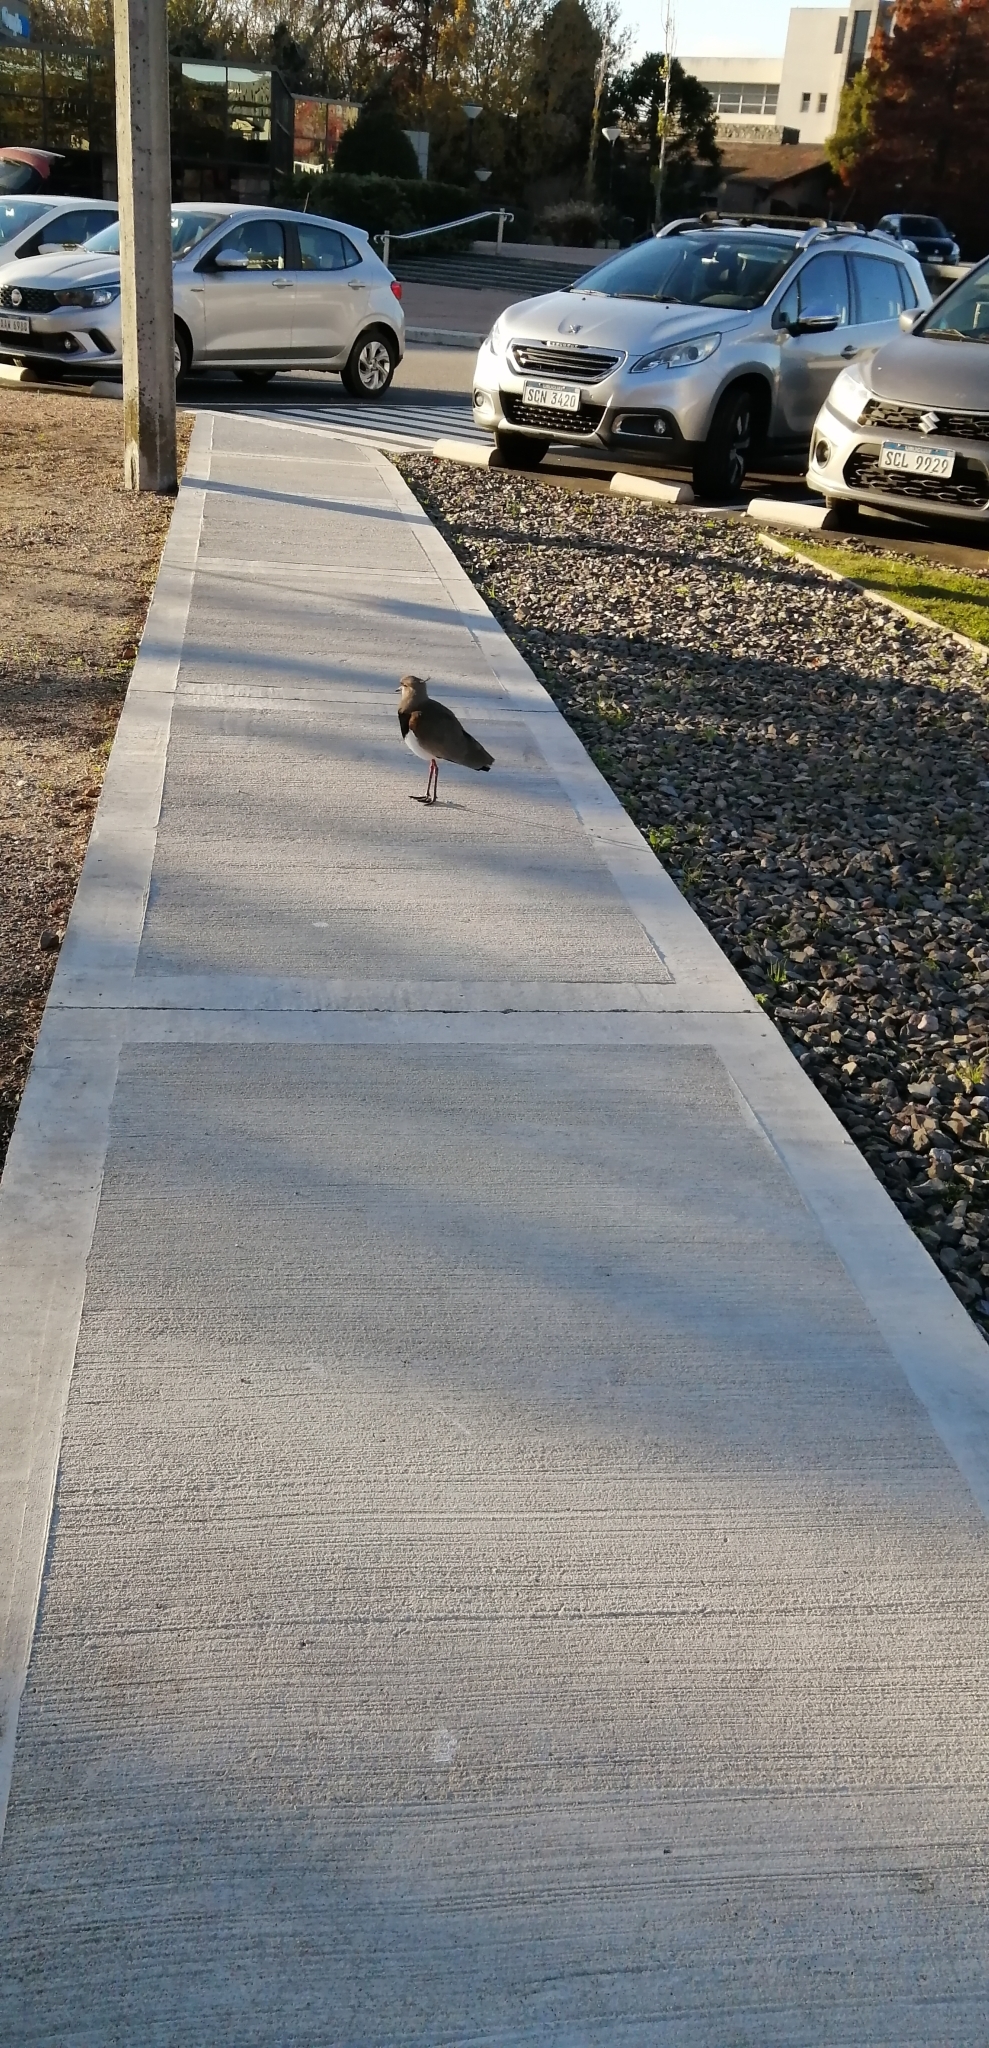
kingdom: Animalia
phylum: Chordata
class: Aves
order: Charadriiformes
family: Charadriidae
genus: Vanellus
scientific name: Vanellus chilensis
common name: Southern lapwing
